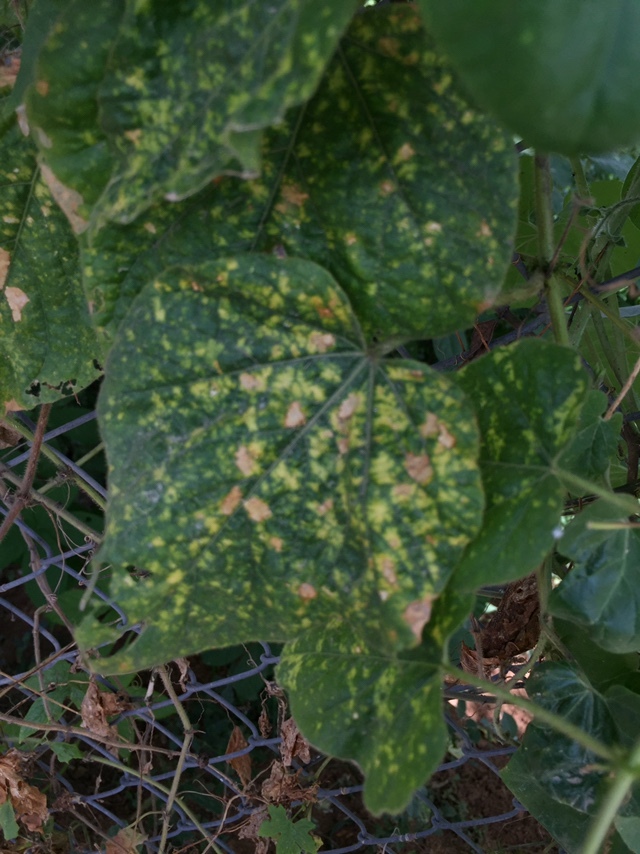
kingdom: Plantae
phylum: Tracheophyta
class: Magnoliopsida
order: Malpighiales
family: Passifloraceae
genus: Passiflora
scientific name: Passiflora foetida
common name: Fetid passionflower
